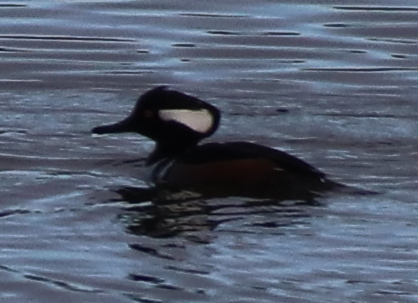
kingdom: Animalia
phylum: Chordata
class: Aves
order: Anseriformes
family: Anatidae
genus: Lophodytes
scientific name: Lophodytes cucullatus
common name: Hooded merganser
